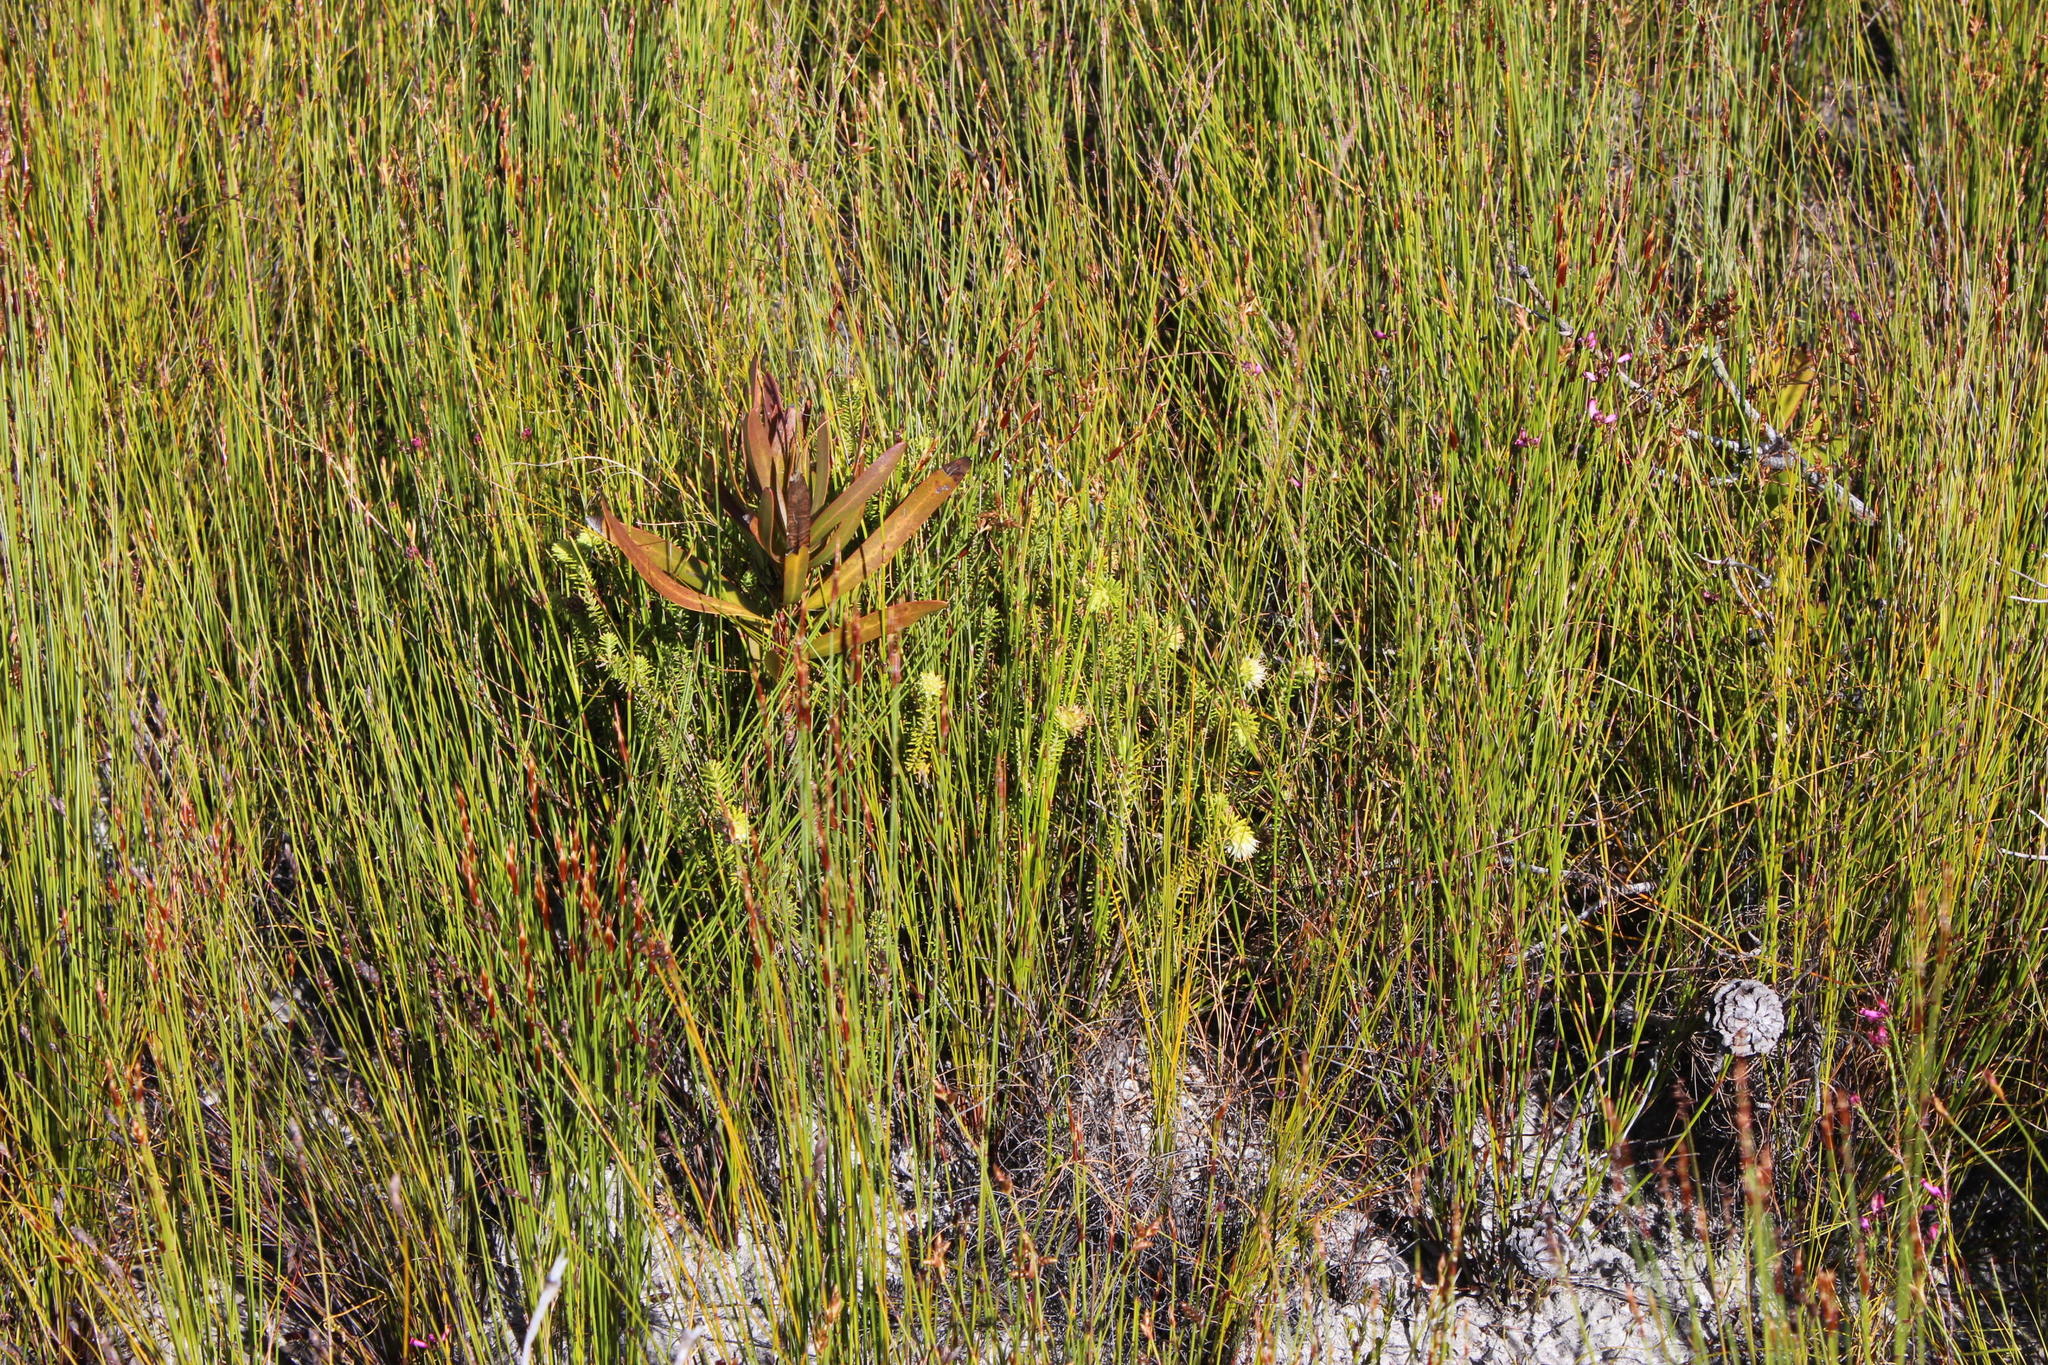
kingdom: Plantae
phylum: Tracheophyta
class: Magnoliopsida
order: Lamiales
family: Stilbaceae
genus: Campylostachys
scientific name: Campylostachys cernua
